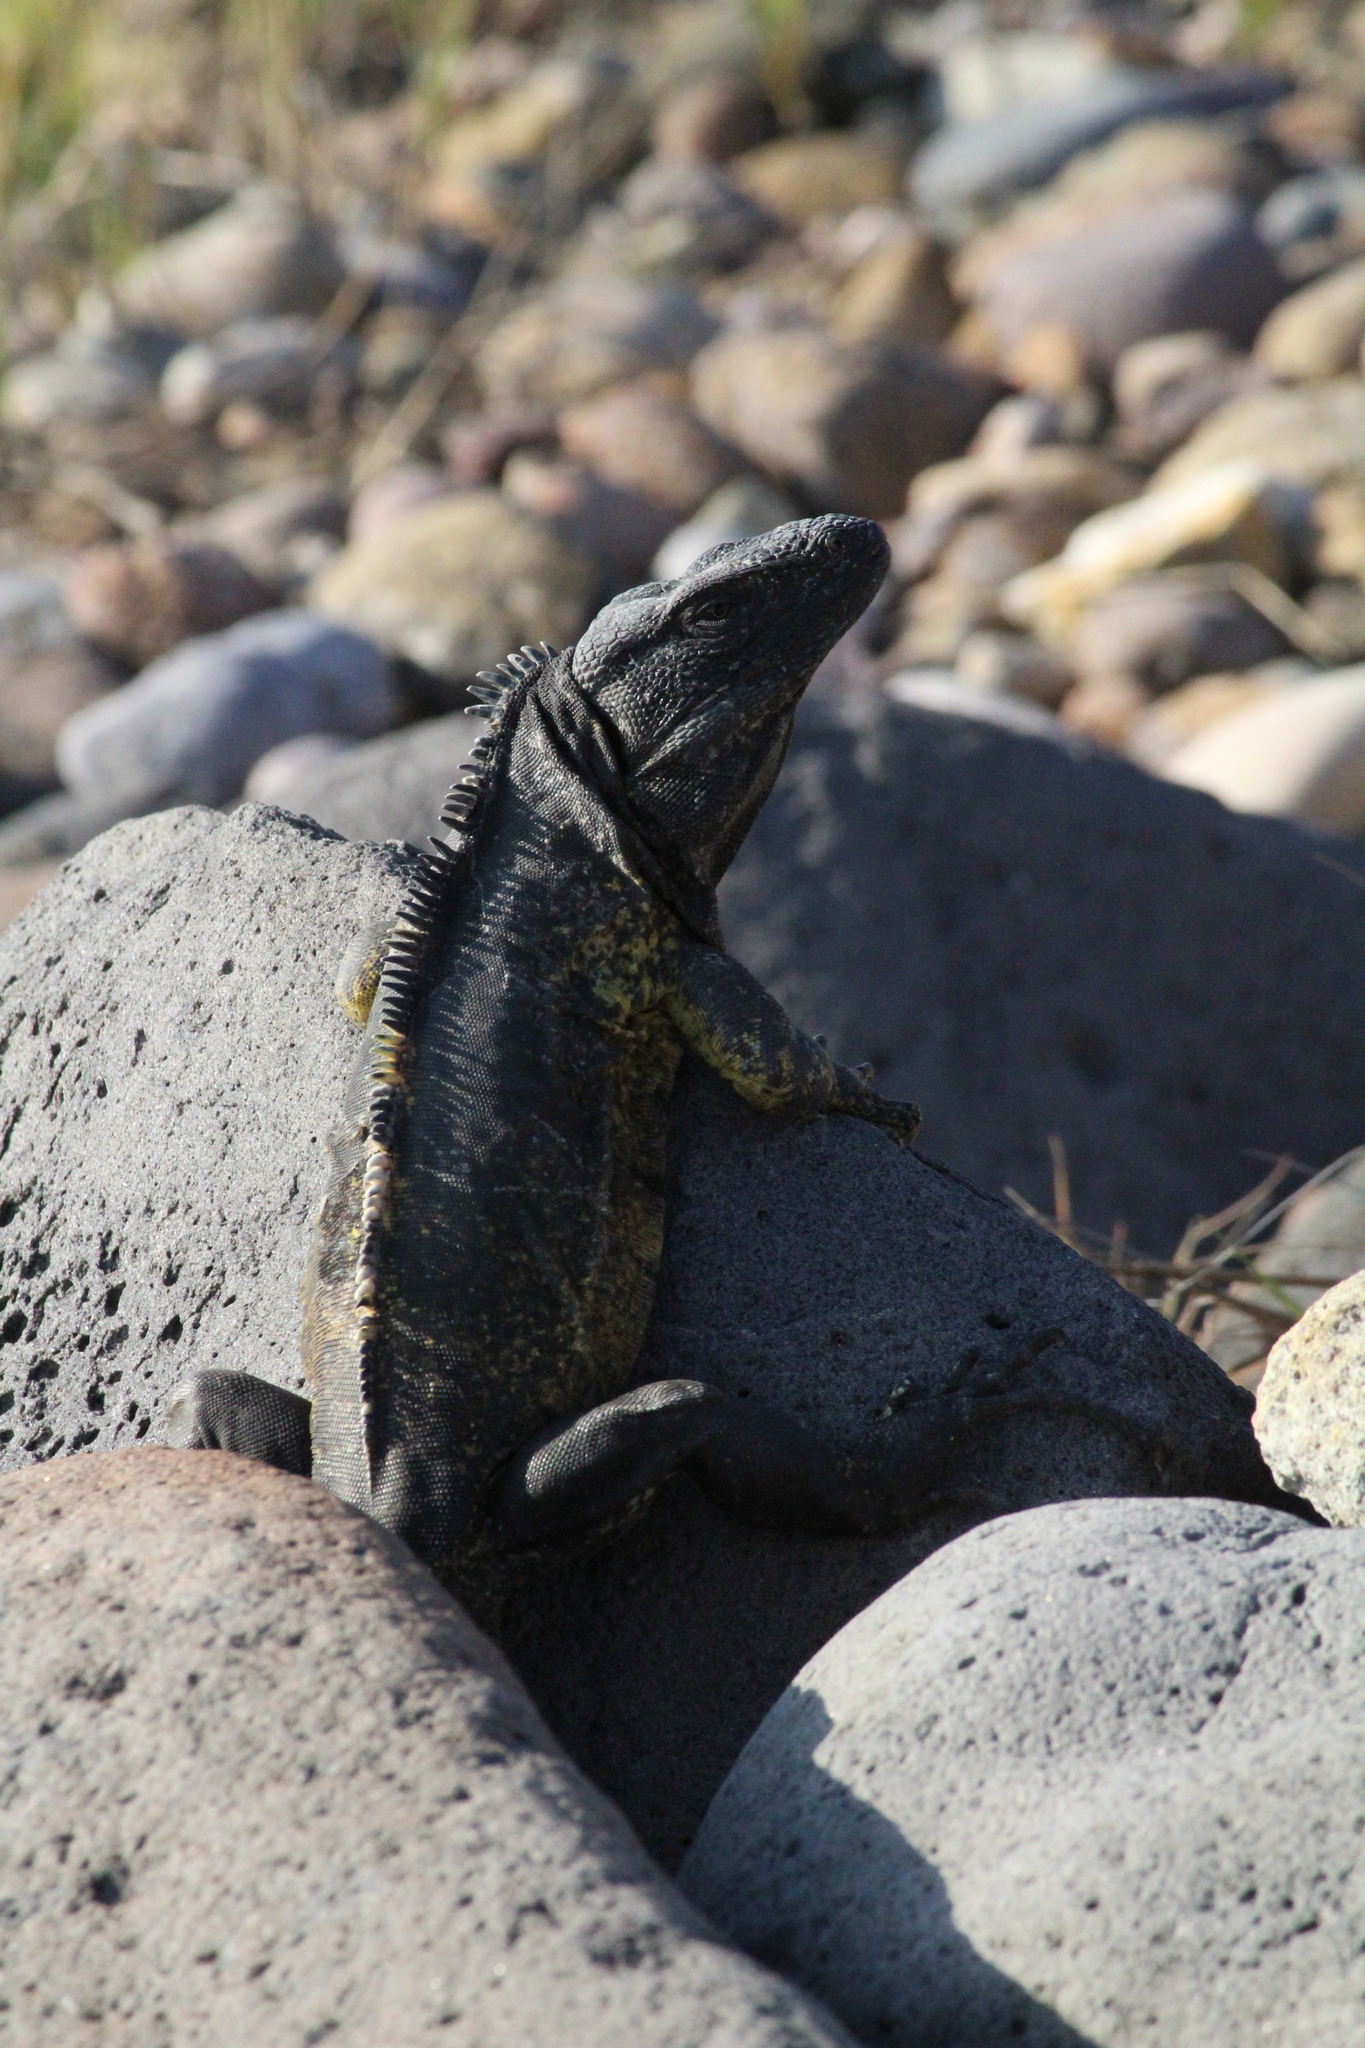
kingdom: Animalia
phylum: Chordata
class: Squamata
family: Iguanidae
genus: Ctenosaura
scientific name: Ctenosaura pectinata
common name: Guerreran spiny-tailed iguana
